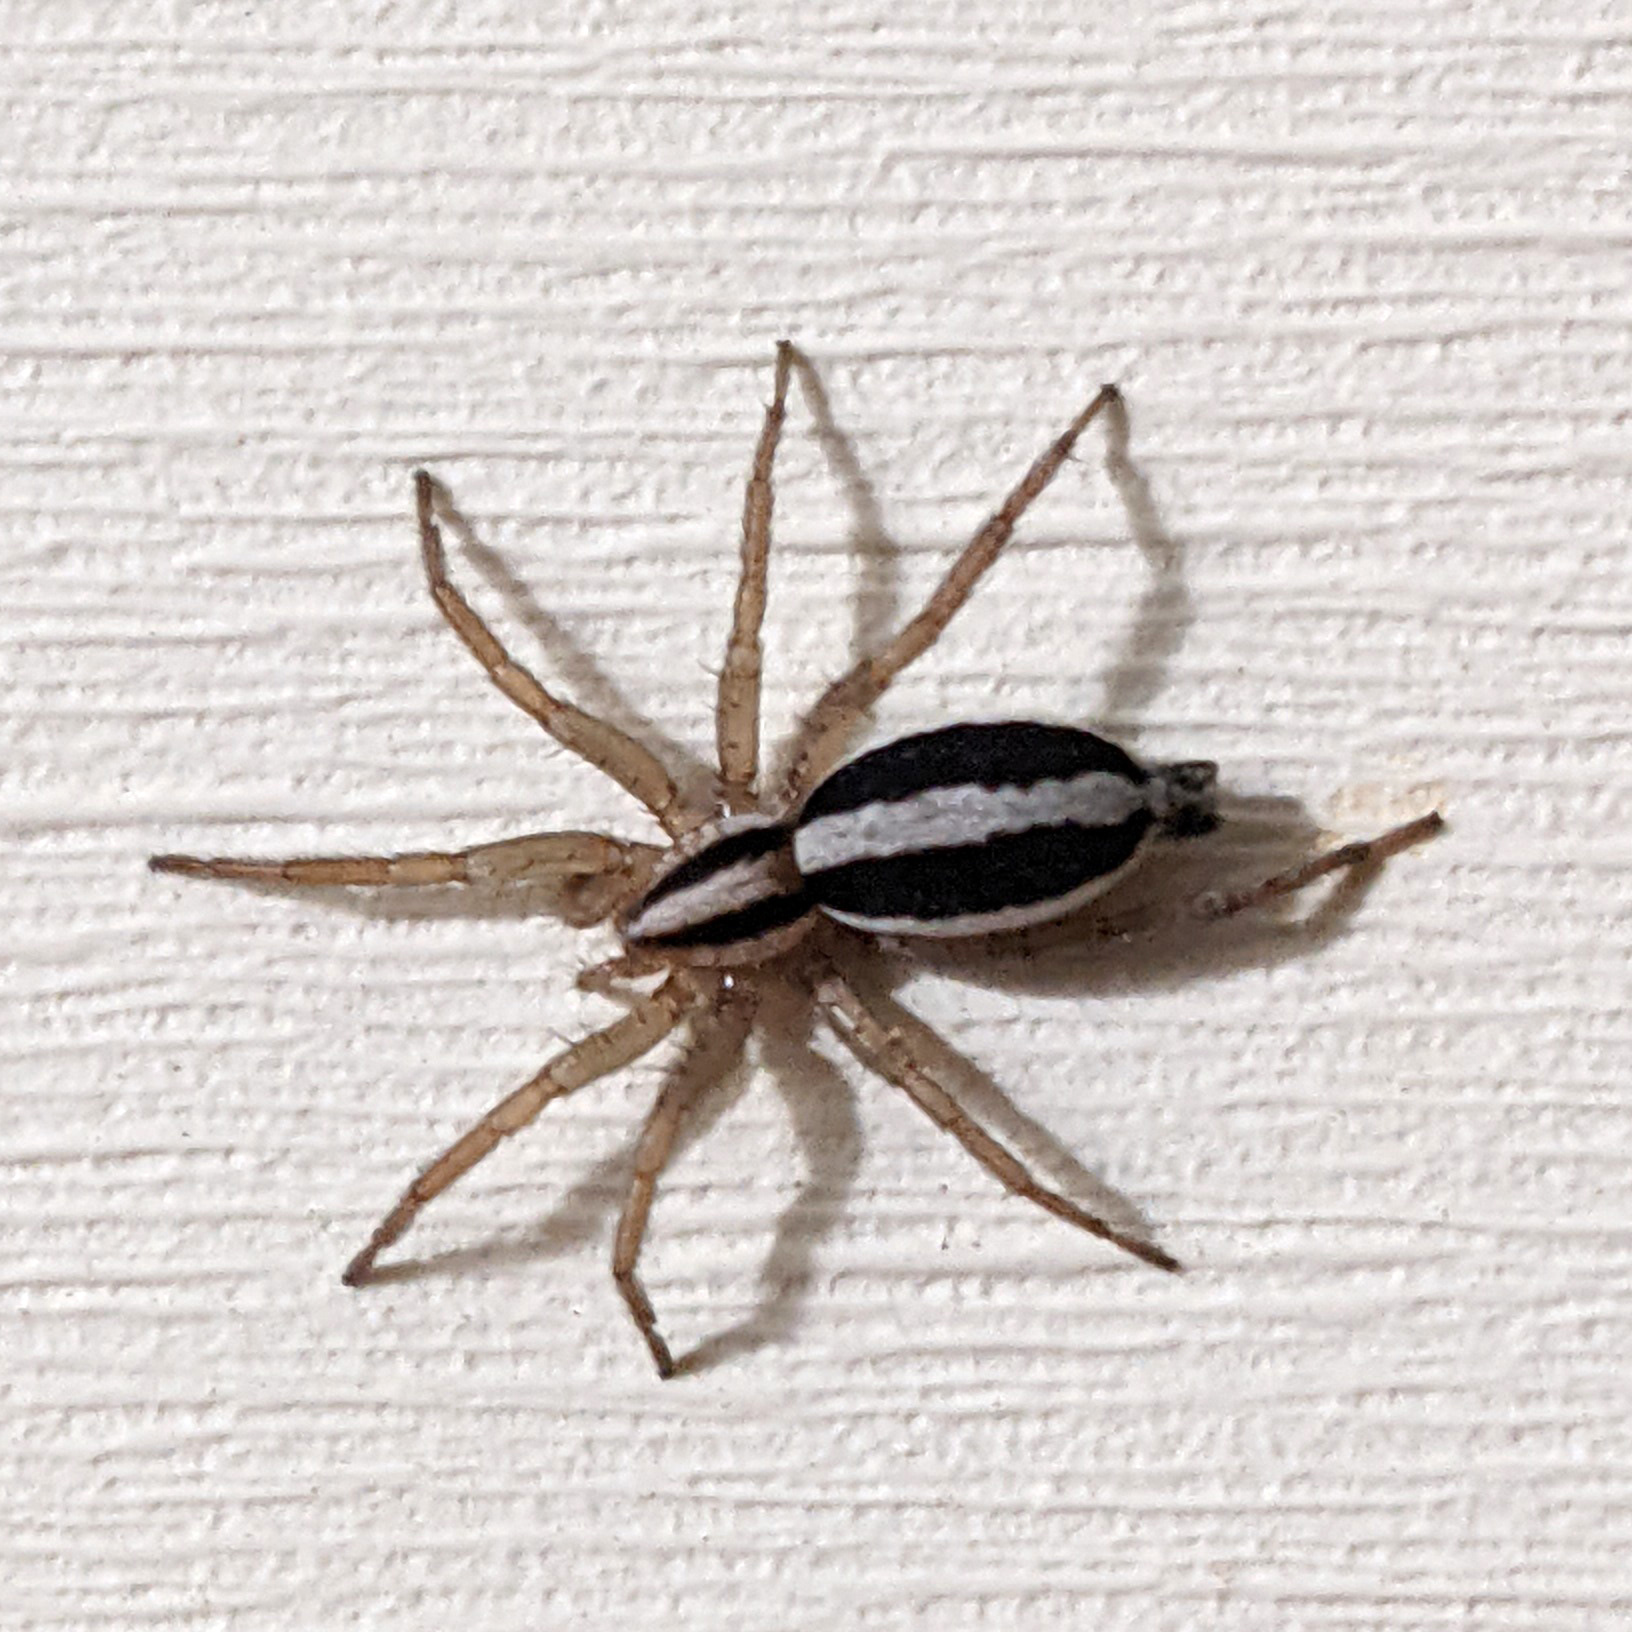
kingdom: Animalia
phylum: Arthropoda
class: Arachnida
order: Araneae
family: Gnaphosidae
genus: Cesonia
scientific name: Cesonia bilineata
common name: Two-lined stealthy ground spider
